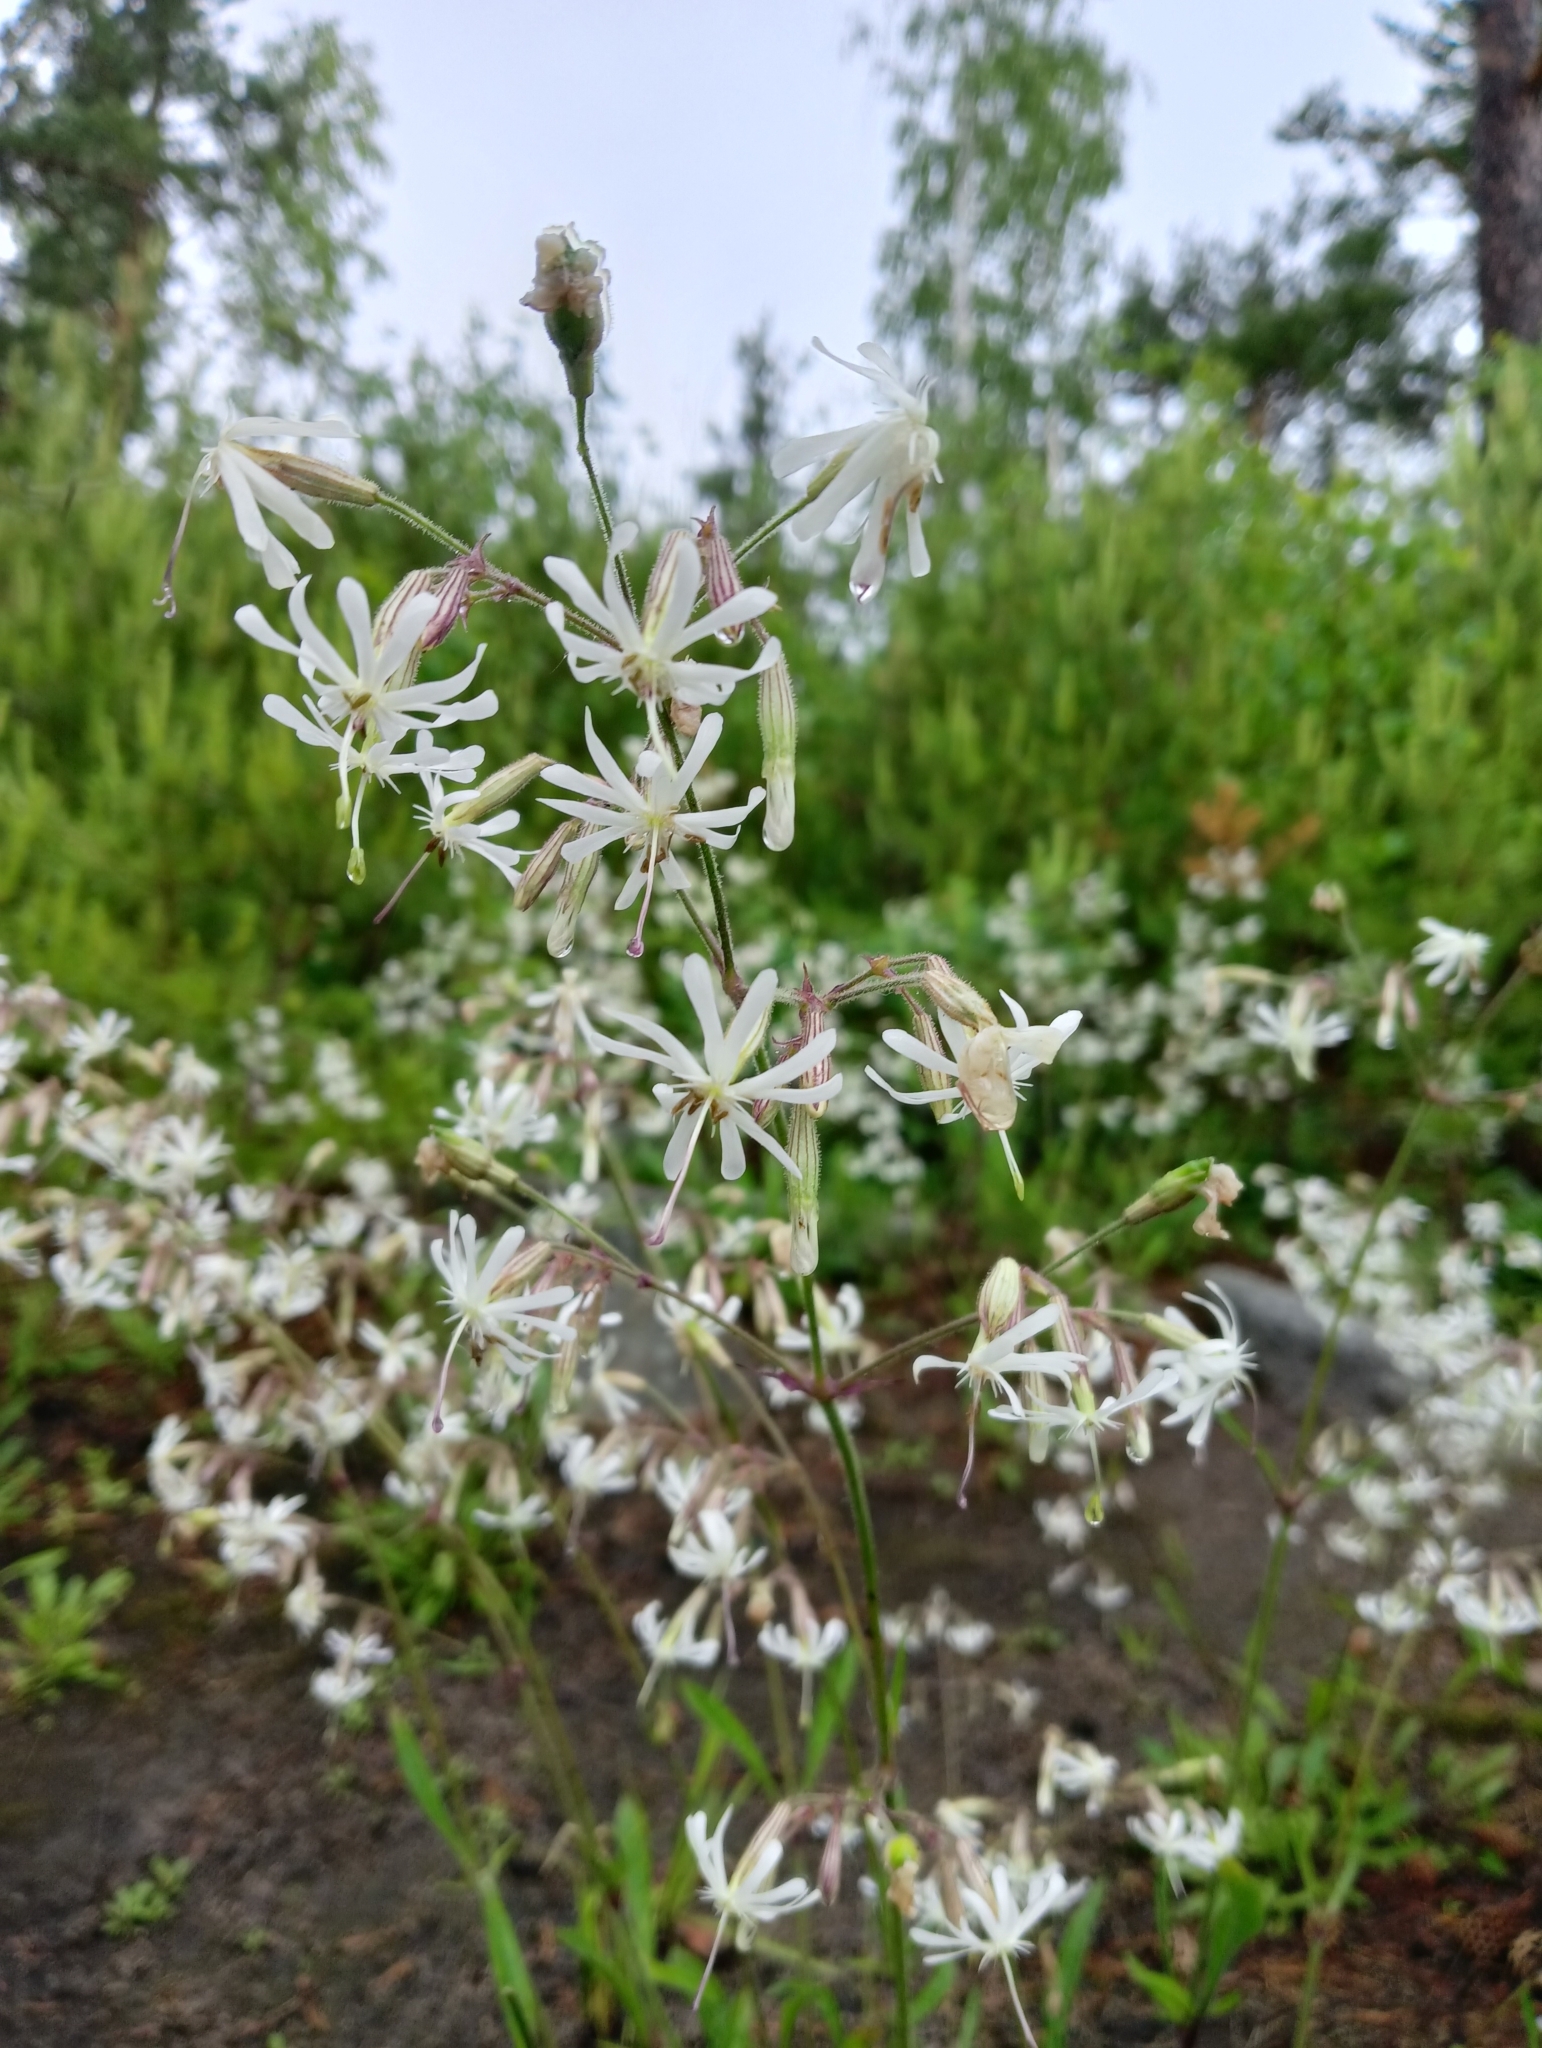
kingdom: Plantae
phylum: Tracheophyta
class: Magnoliopsida
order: Caryophyllales
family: Caryophyllaceae
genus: Silene
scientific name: Silene nutans
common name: Nottingham catchfly
